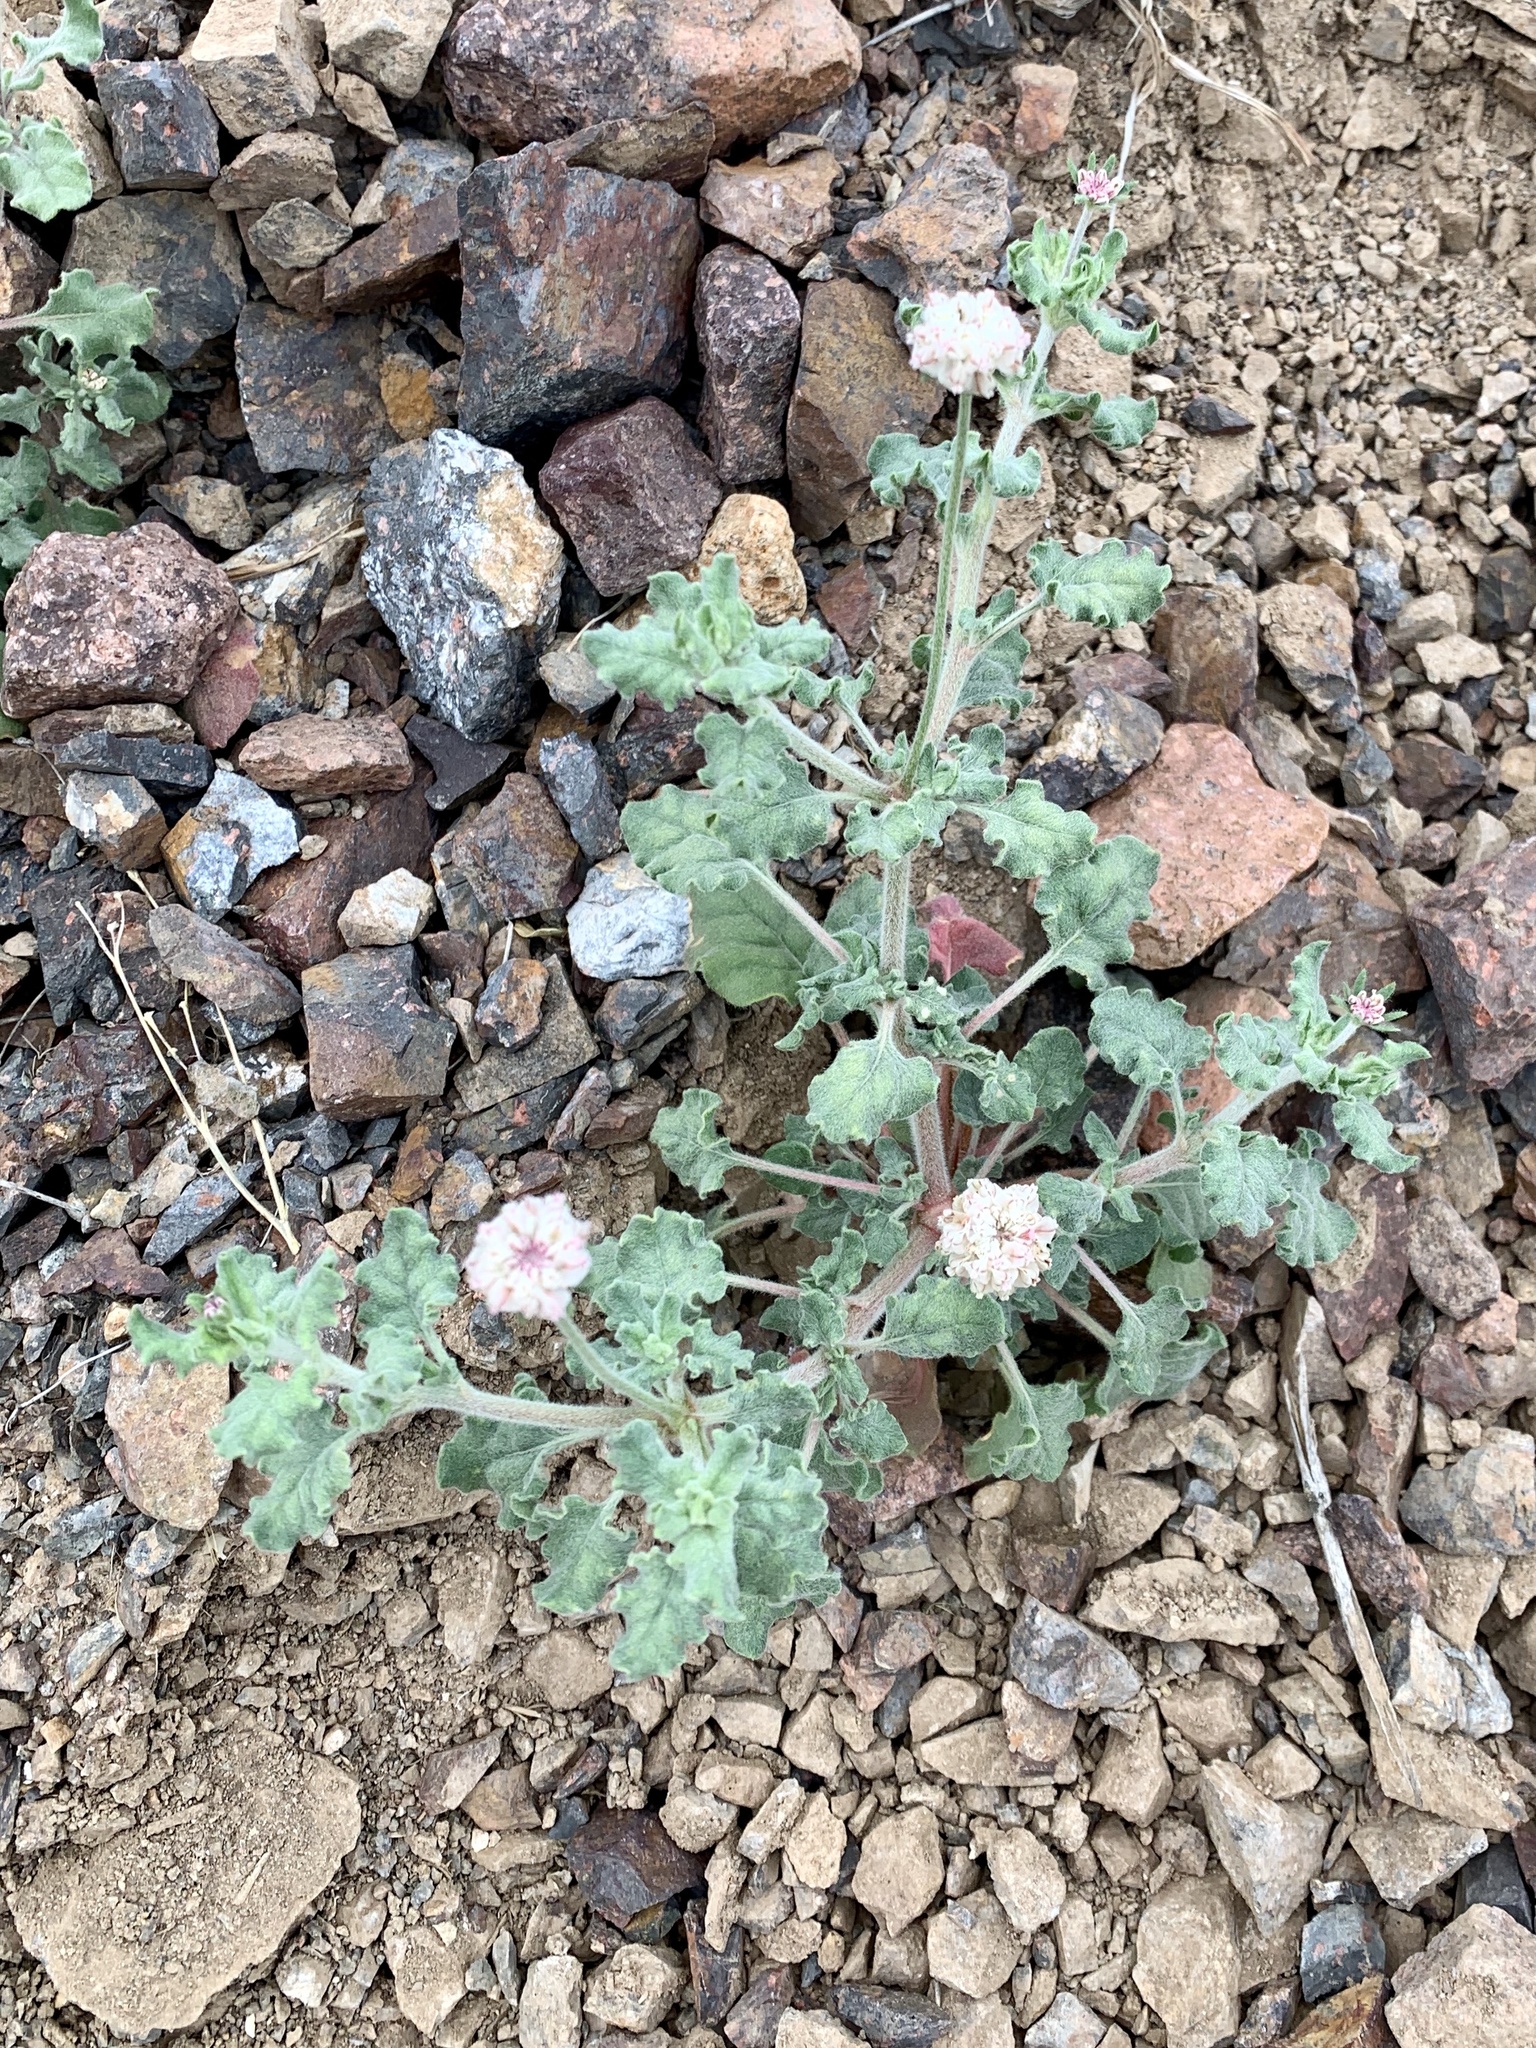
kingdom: Plantae
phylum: Tracheophyta
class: Magnoliopsida
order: Caryophyllales
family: Polygonaceae
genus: Eriogonum
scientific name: Eriogonum abertianum
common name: Abert's wild buckwheat
